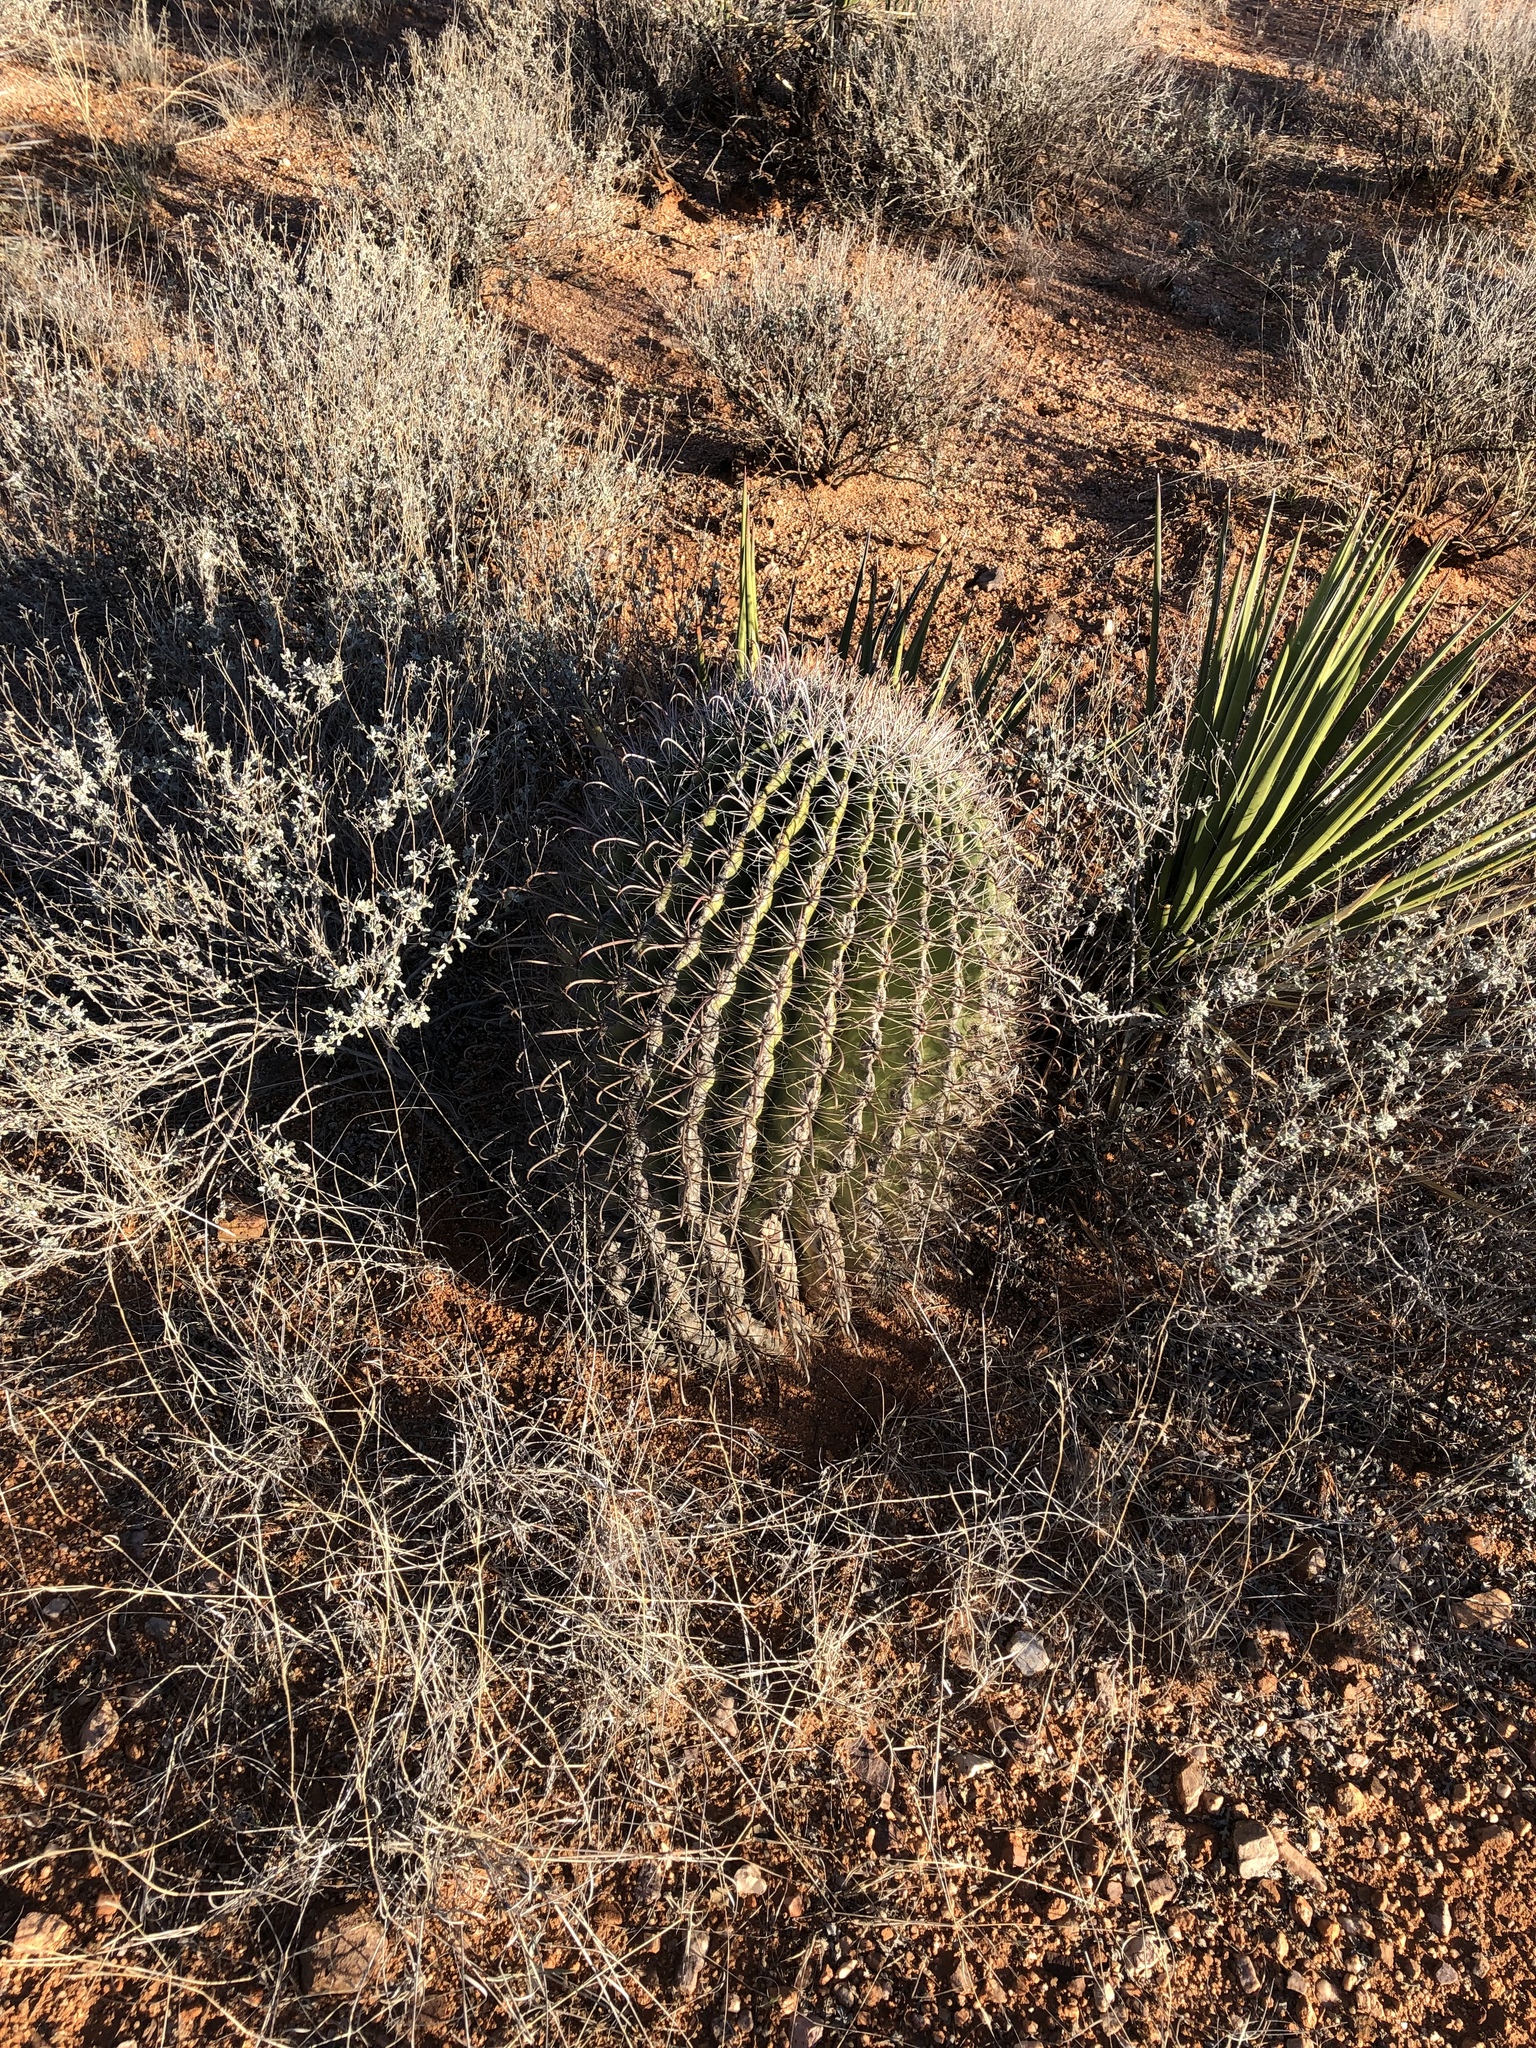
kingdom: Plantae
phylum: Tracheophyta
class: Magnoliopsida
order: Caryophyllales
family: Cactaceae
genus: Ferocactus
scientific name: Ferocactus wislizeni
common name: Candy barrel cactus
